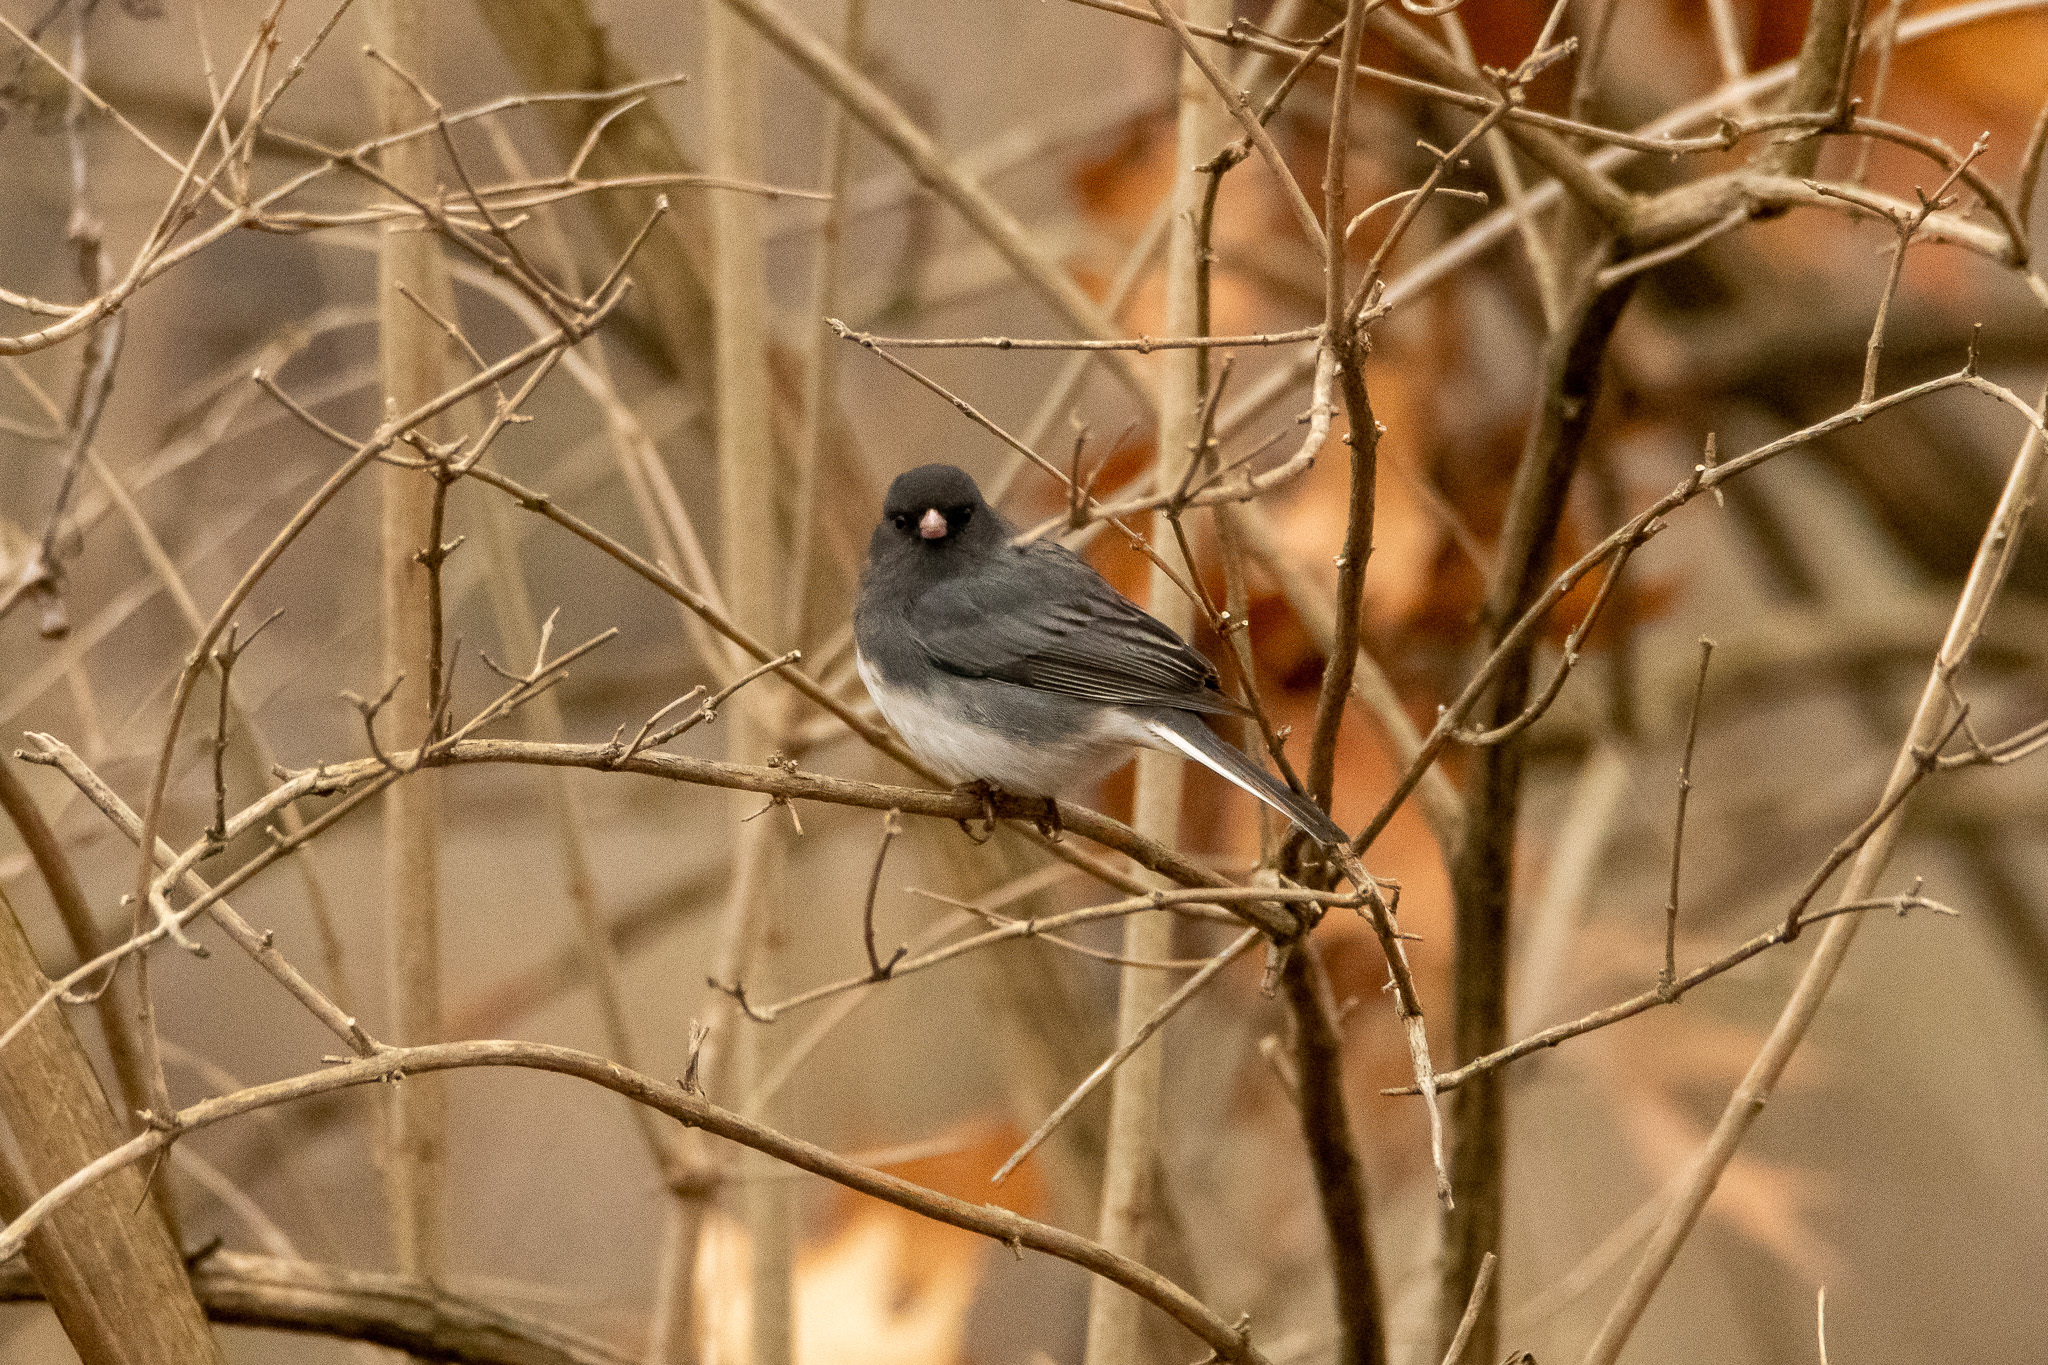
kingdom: Animalia
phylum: Chordata
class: Aves
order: Passeriformes
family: Passerellidae
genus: Junco
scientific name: Junco hyemalis
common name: Dark-eyed junco
